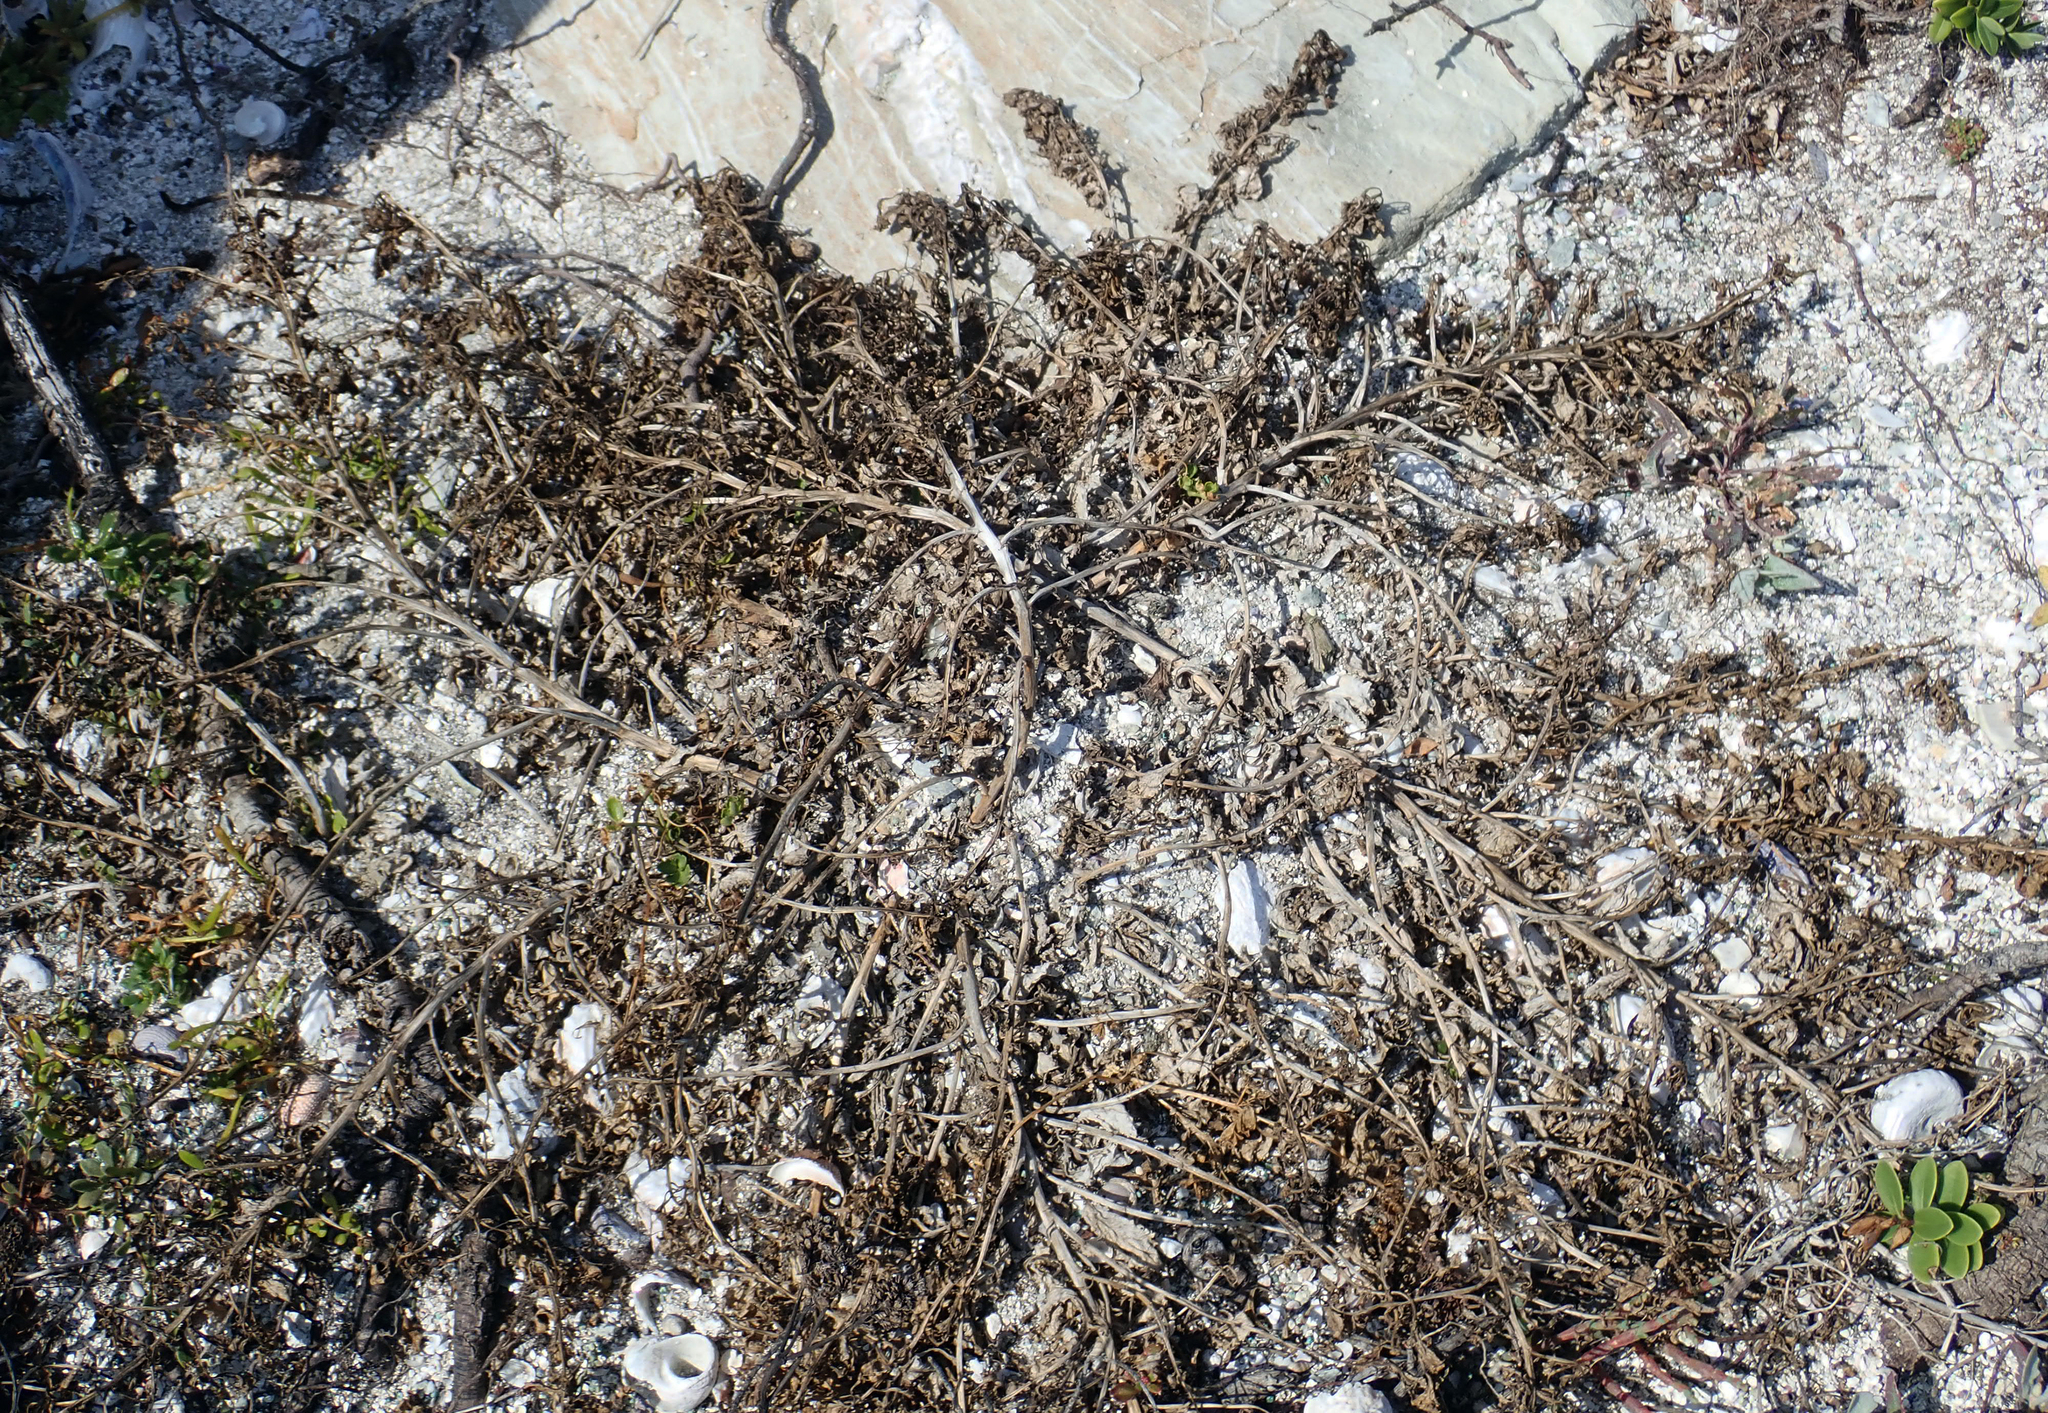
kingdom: Plantae
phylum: Tracheophyta
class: Magnoliopsida
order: Brassicales
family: Brassicaceae
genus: Lepidium
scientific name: Lepidium rekohuense
